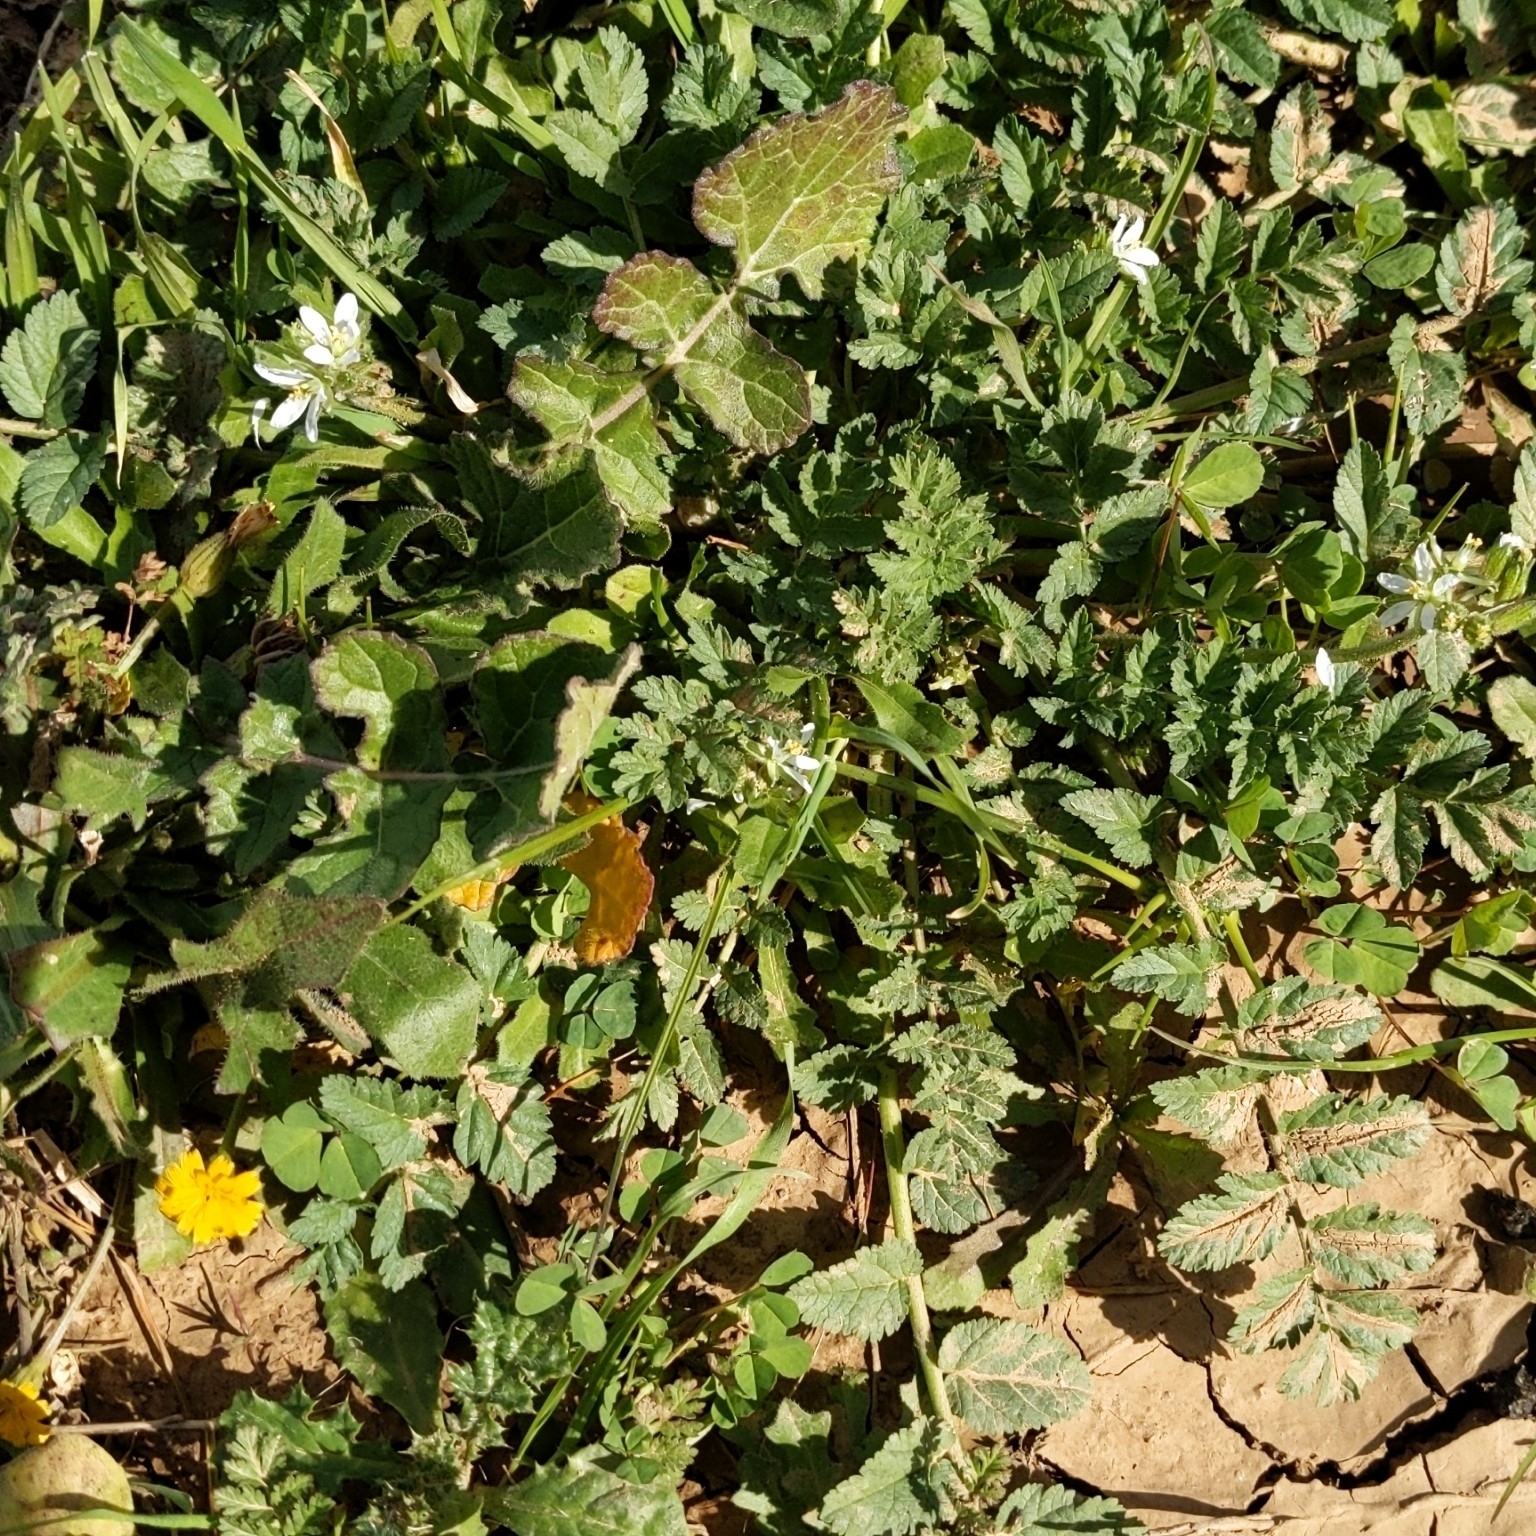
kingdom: Plantae
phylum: Tracheophyta
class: Magnoliopsida
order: Geraniales
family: Geraniaceae
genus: Erodium
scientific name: Erodium moschatum
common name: Musk stork's-bill
